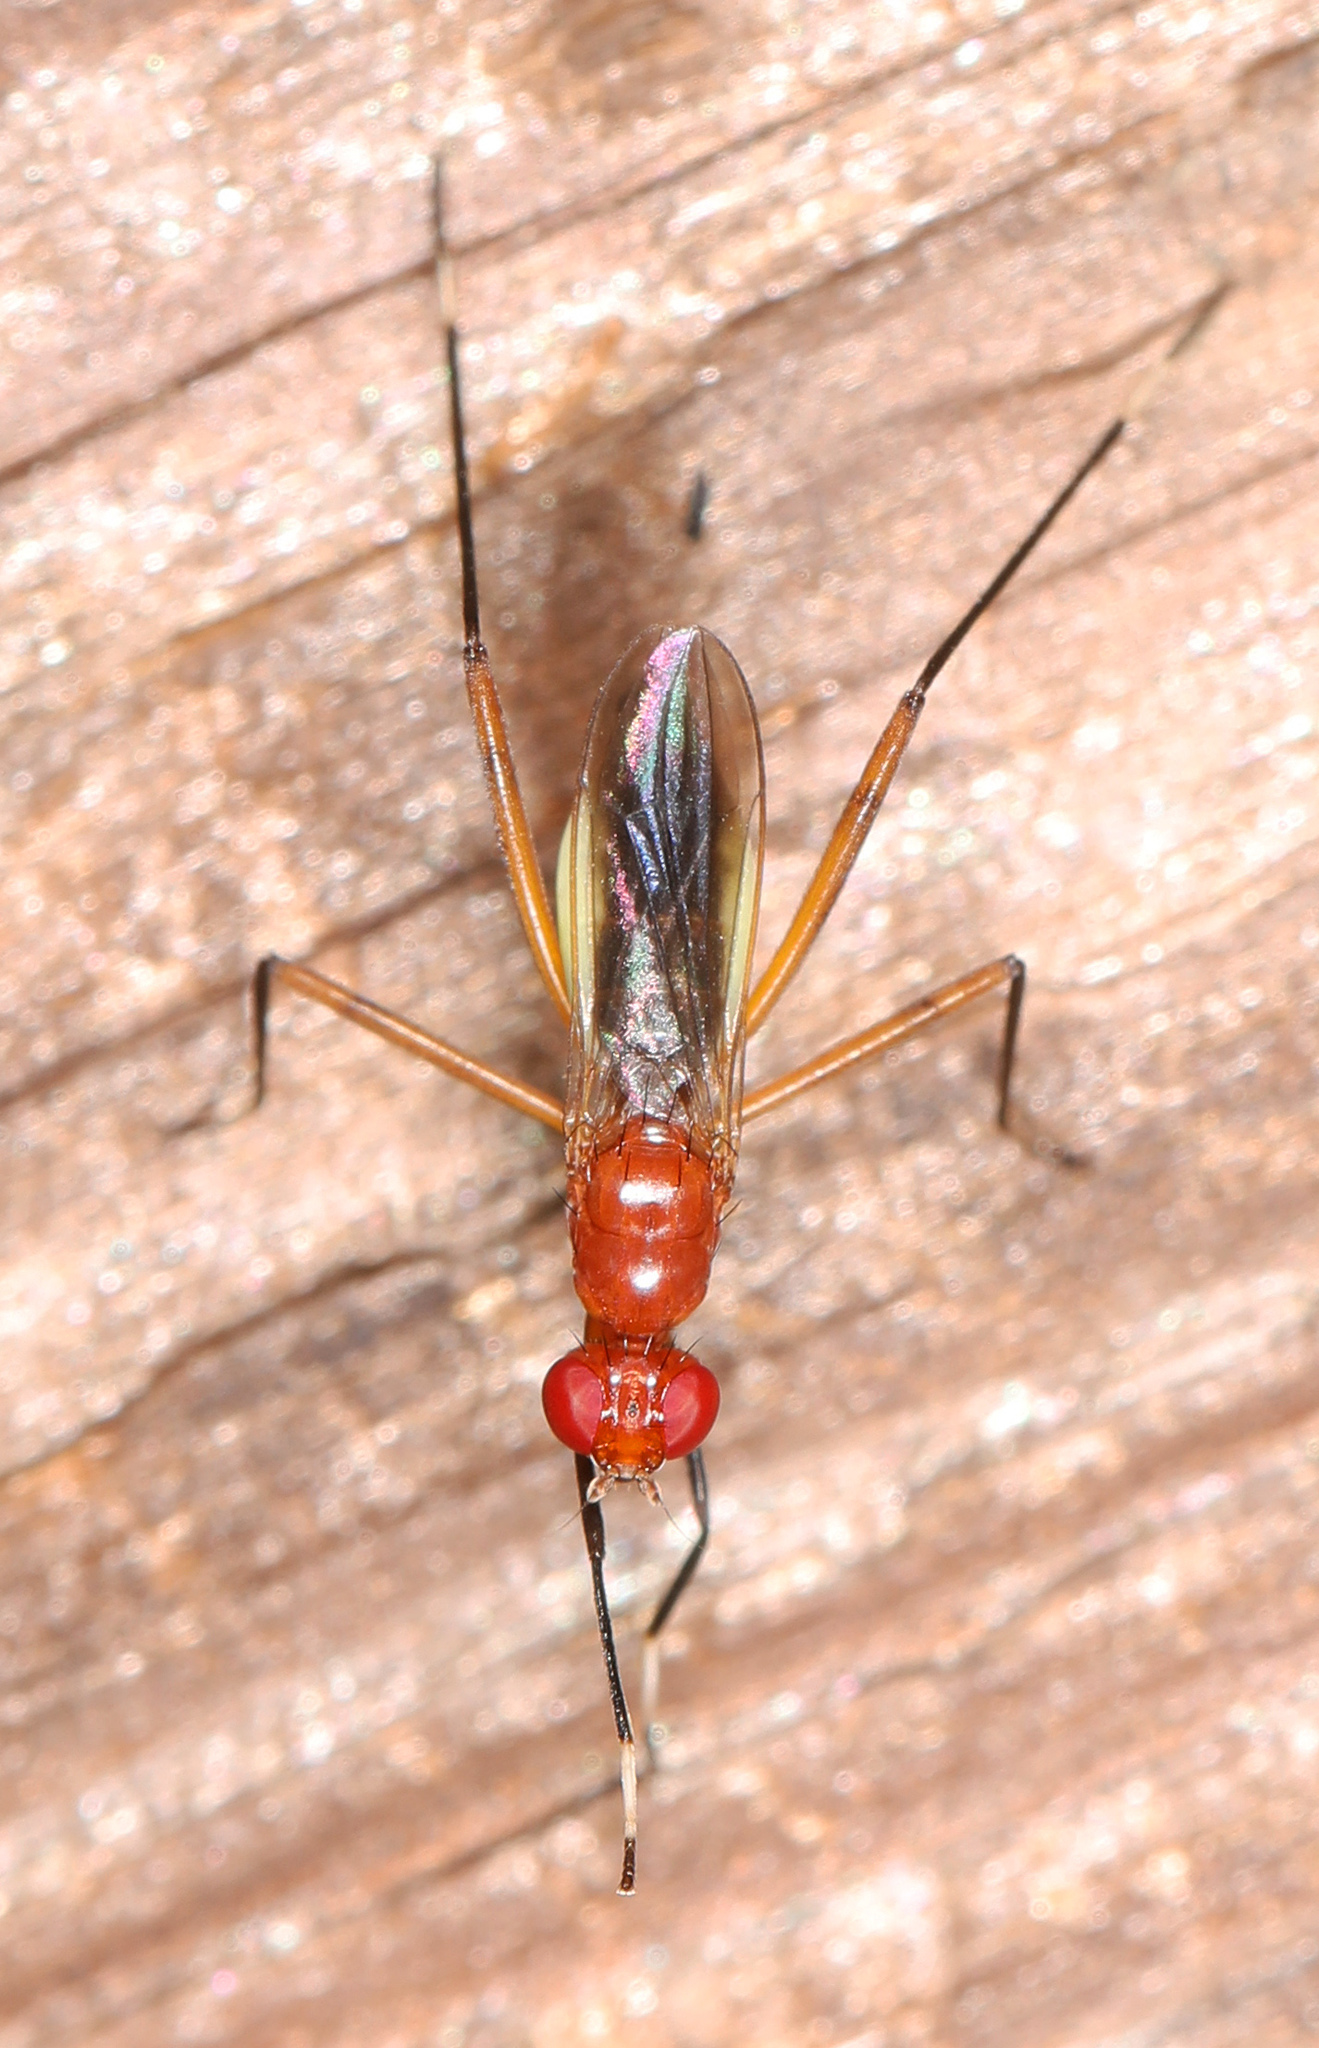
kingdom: Animalia
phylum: Arthropoda
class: Insecta
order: Diptera
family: Micropezidae
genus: Grallipeza
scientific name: Grallipeza nebulosa
